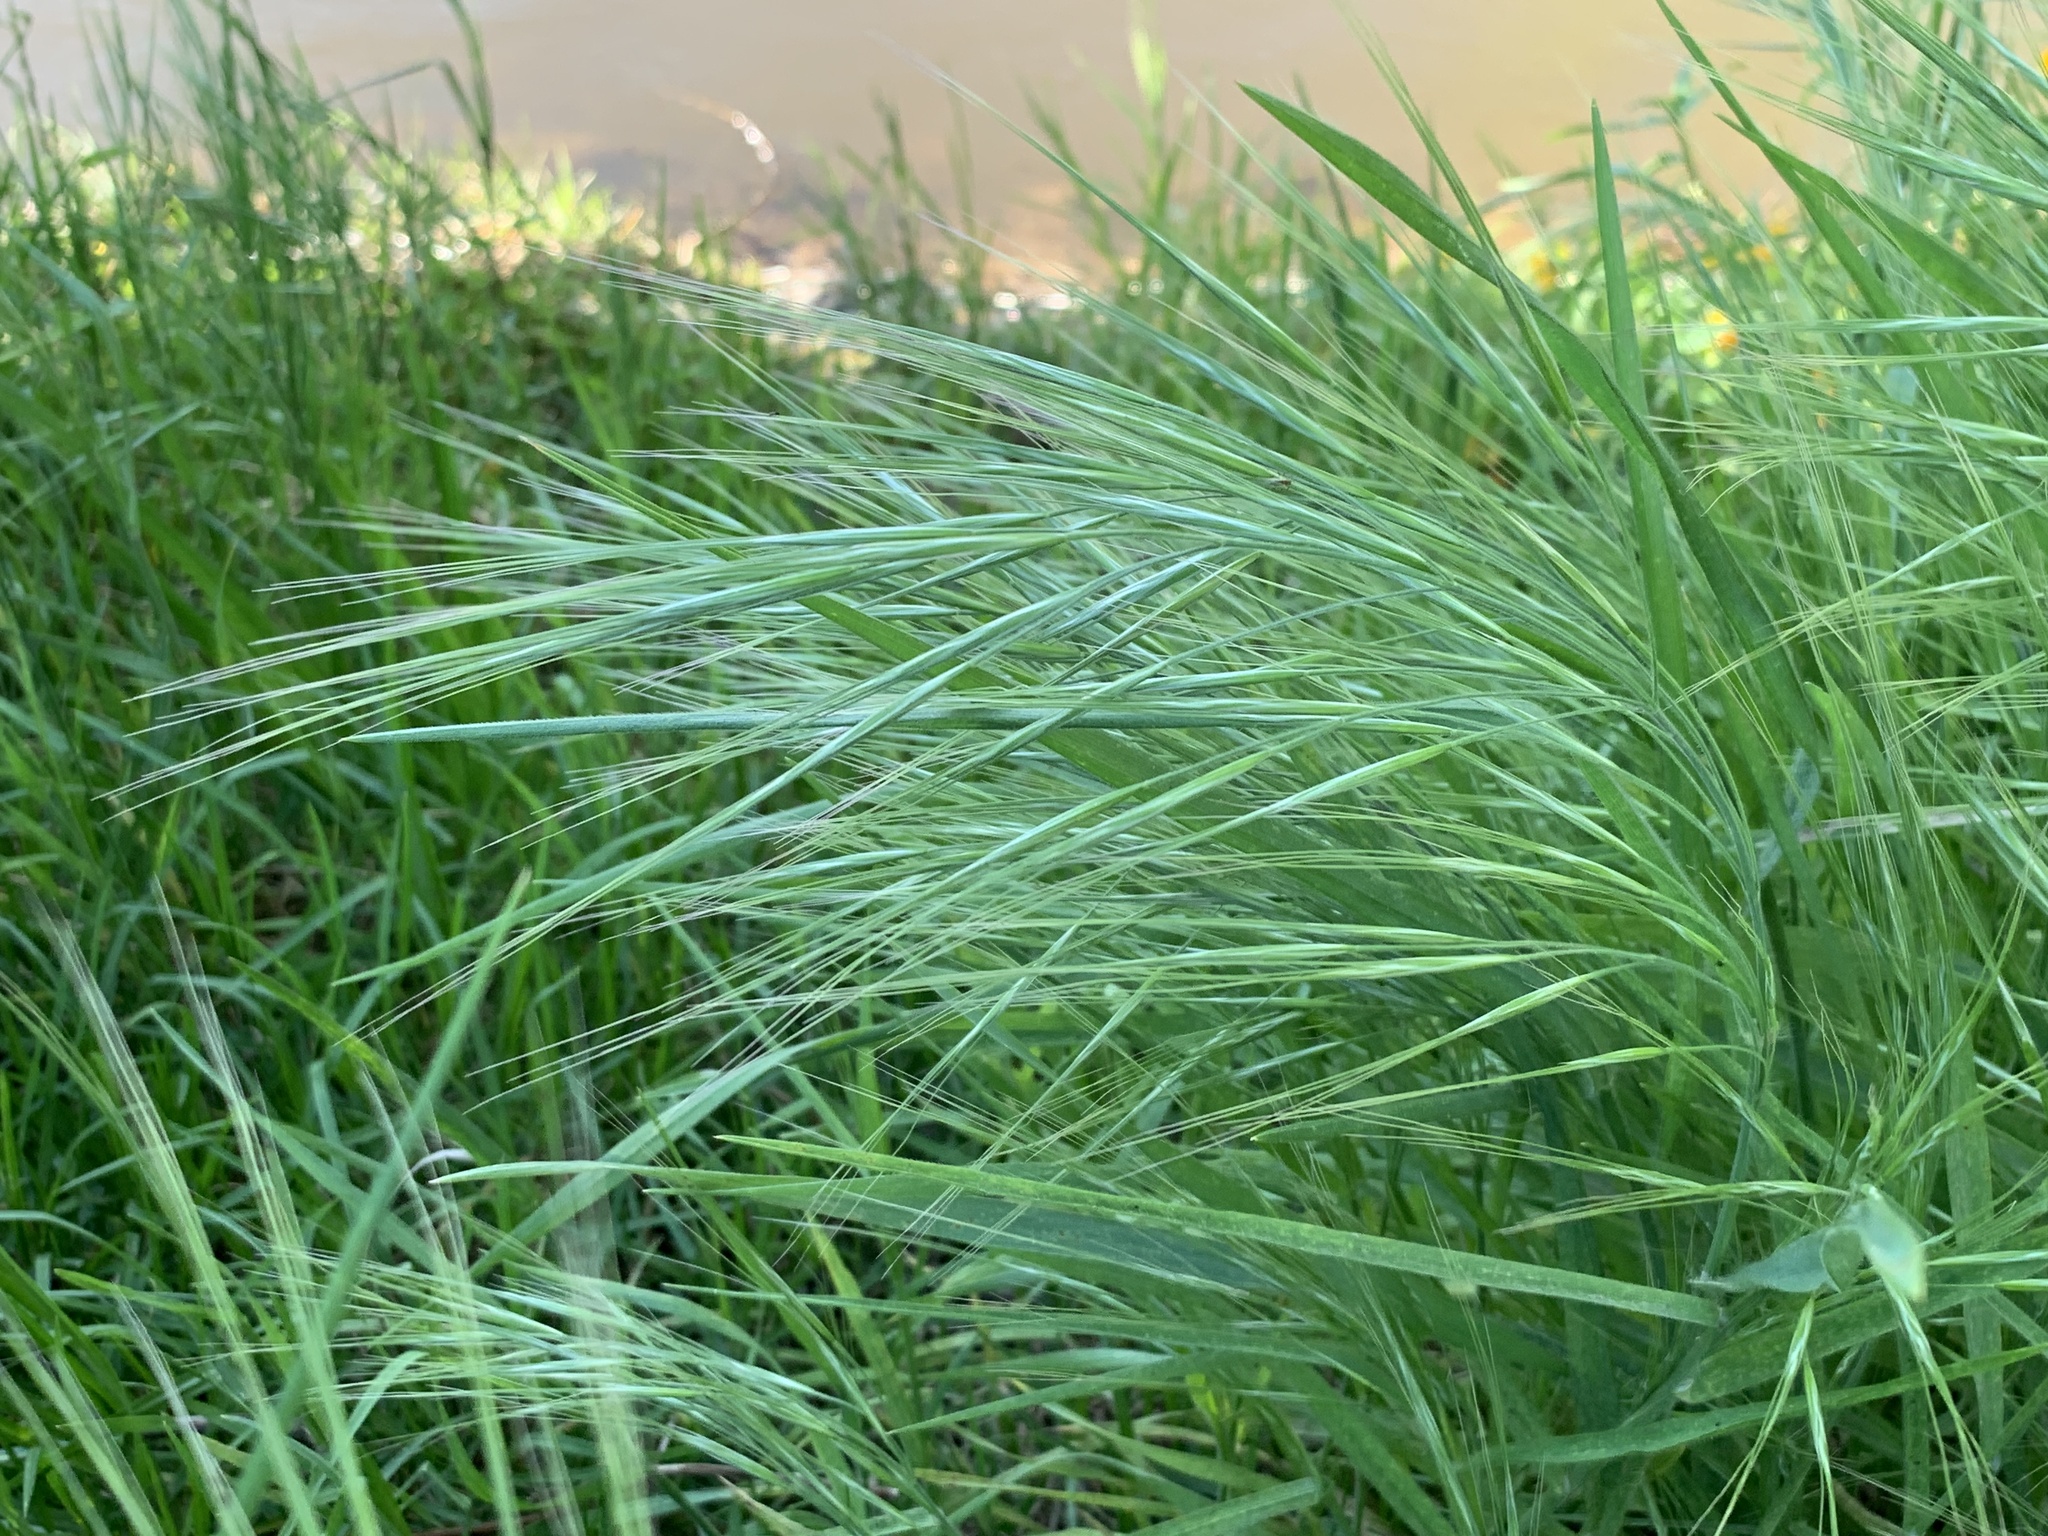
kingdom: Plantae
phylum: Tracheophyta
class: Liliopsida
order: Poales
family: Poaceae
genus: Bromus
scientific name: Bromus diandrus
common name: Ripgut brome
